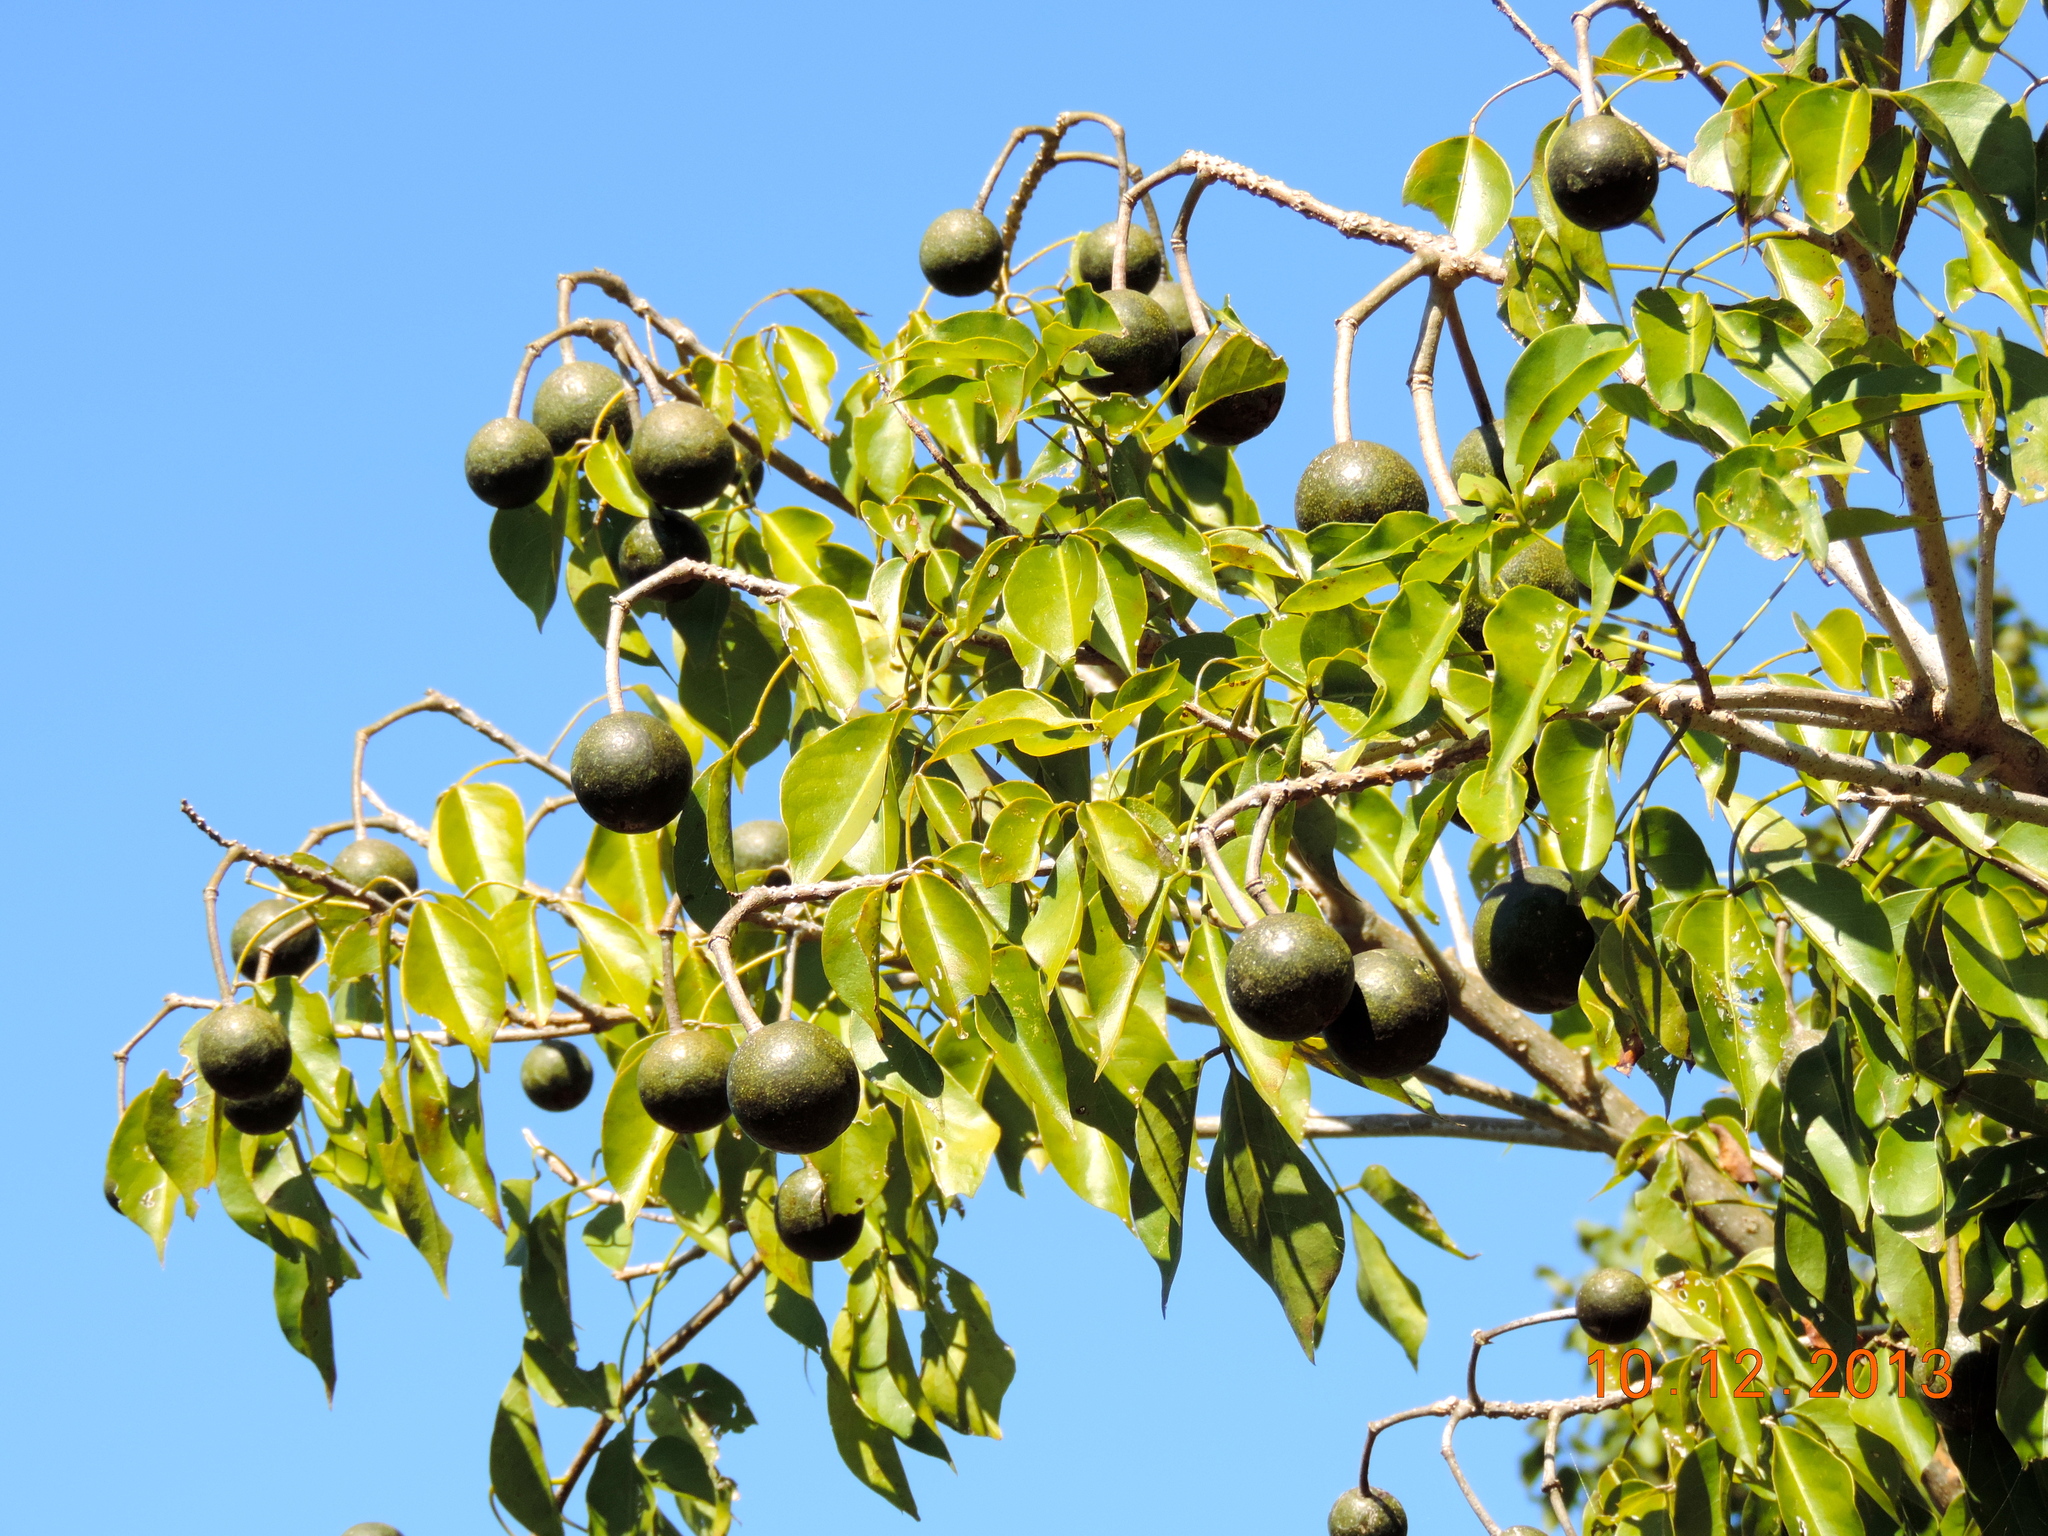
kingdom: Plantae
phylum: Tracheophyta
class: Magnoliopsida
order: Brassicales
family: Capparaceae
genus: Crateva
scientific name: Crateva tapia
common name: Garlic-pear
